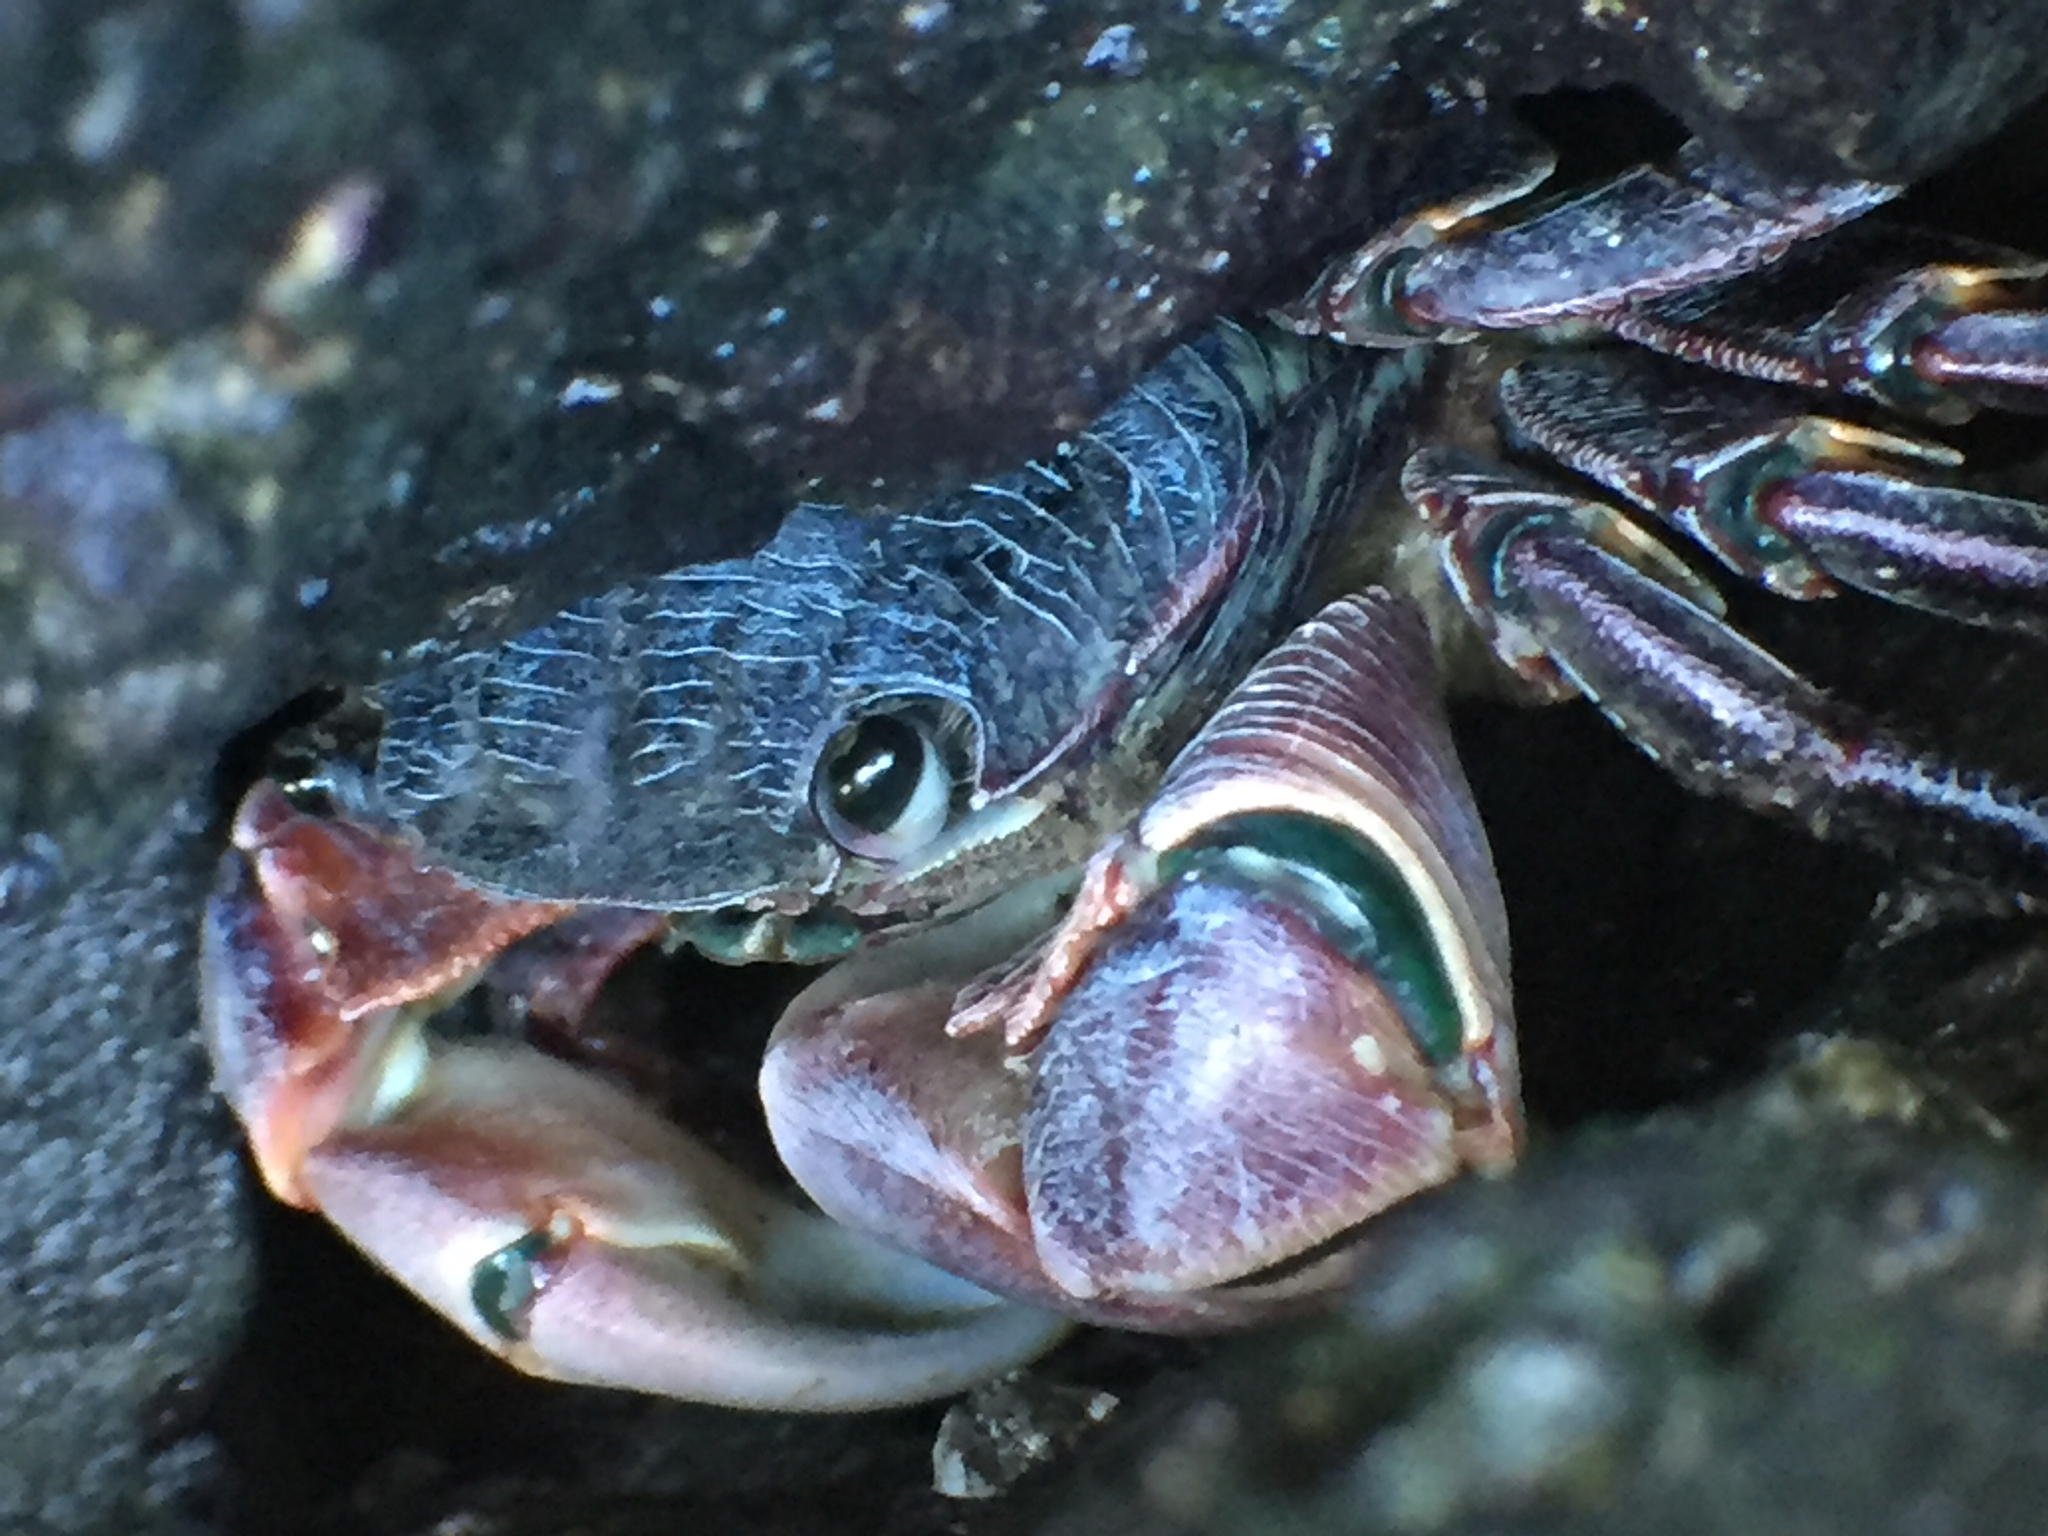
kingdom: Animalia
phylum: Arthropoda
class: Malacostraca
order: Decapoda
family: Grapsidae
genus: Pachygrapsus
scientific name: Pachygrapsus crassipes
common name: Striped shore crab
